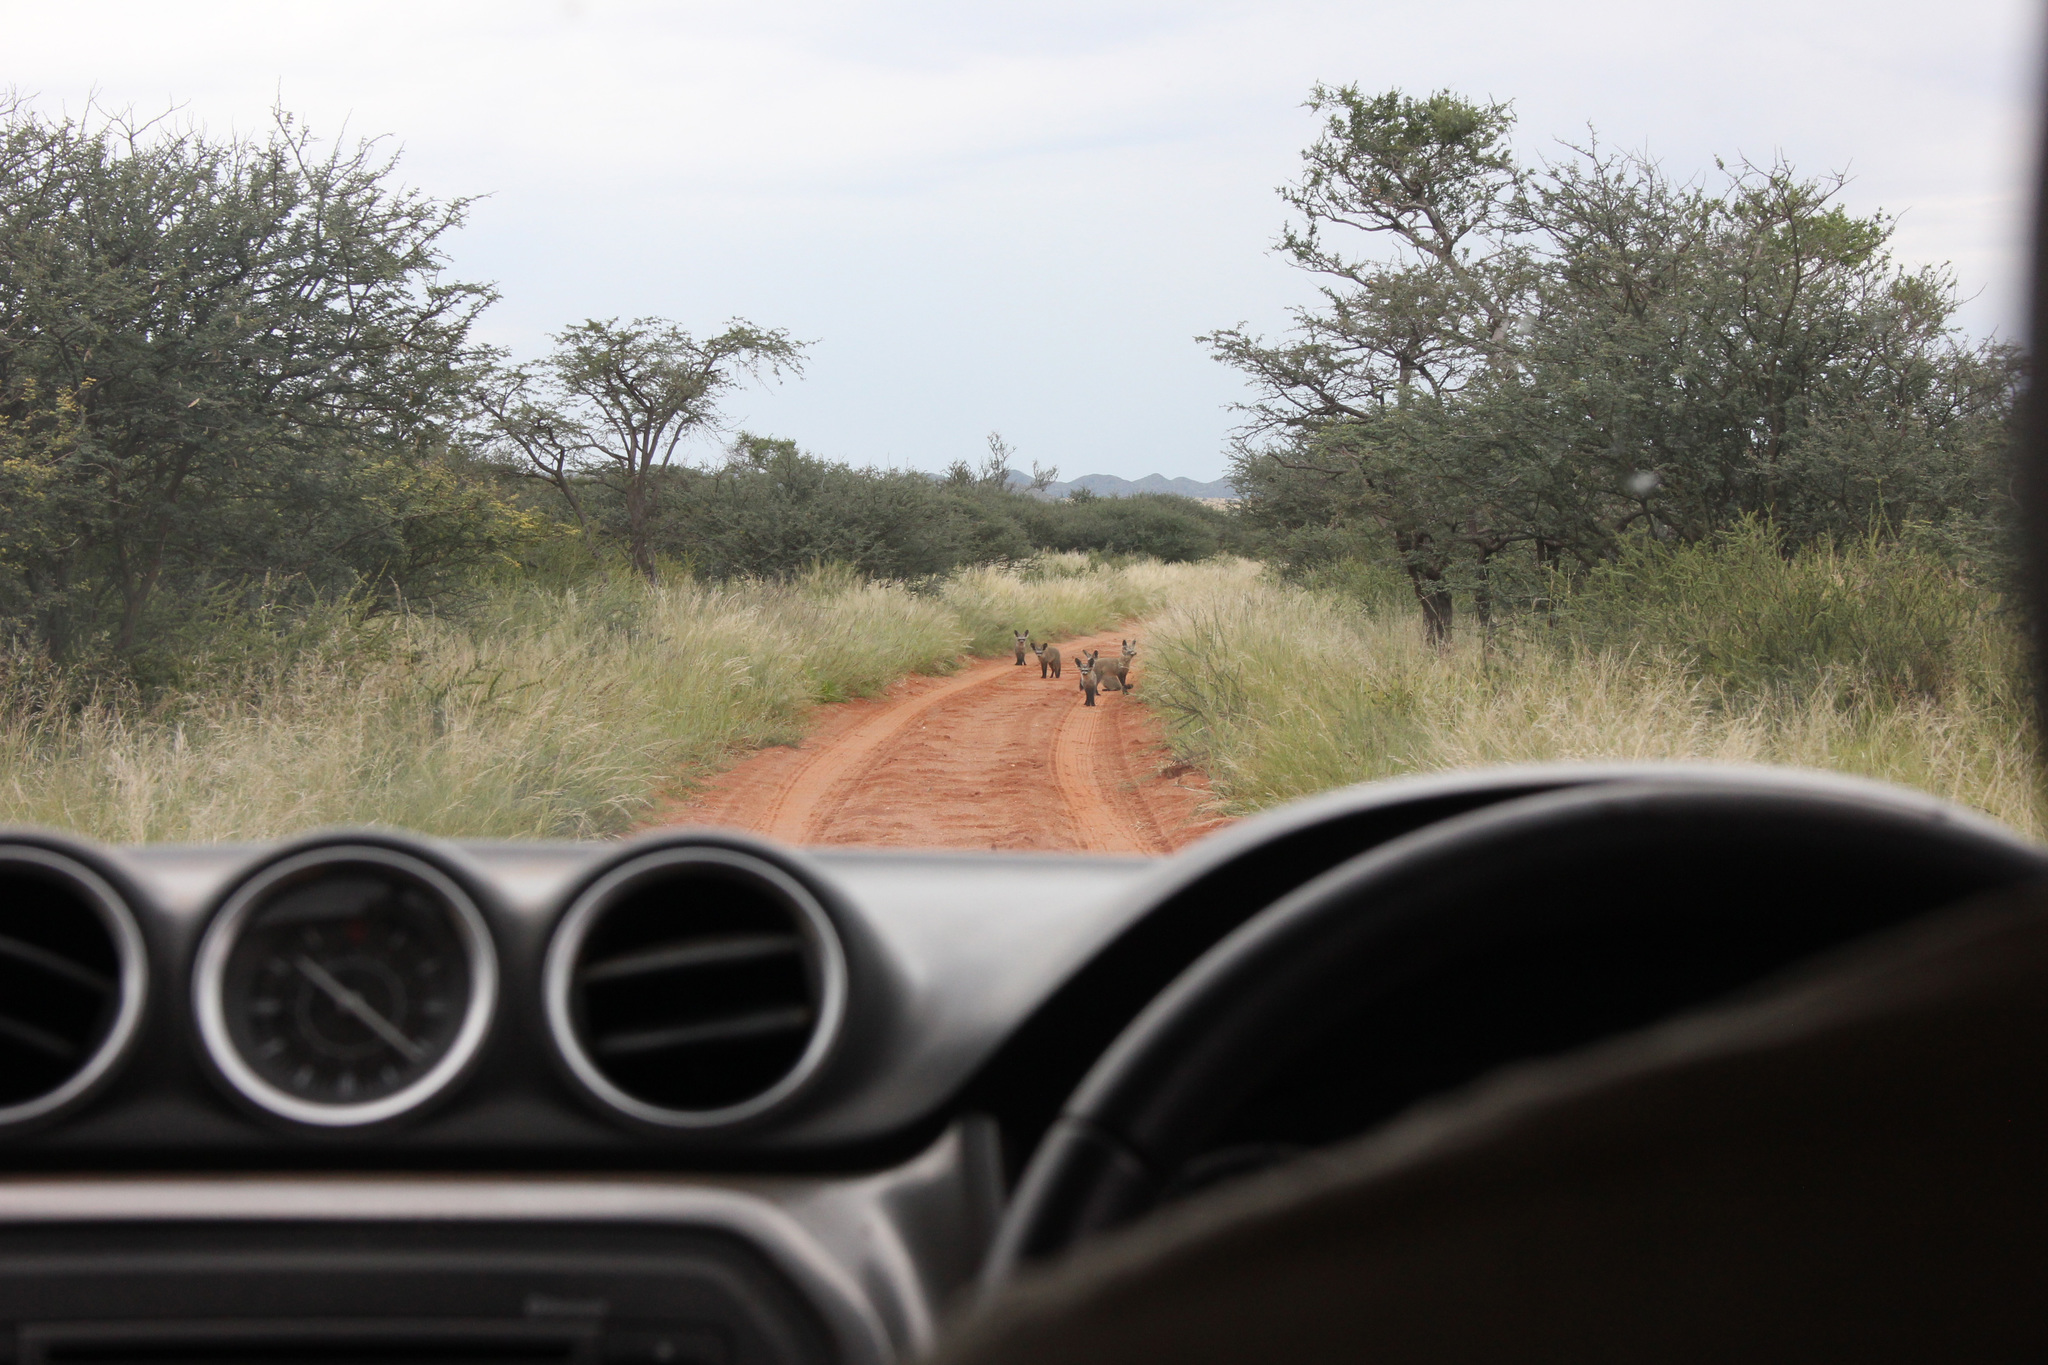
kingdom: Animalia
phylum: Chordata
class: Mammalia
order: Carnivora
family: Canidae
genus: Otocyon
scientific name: Otocyon megalotis
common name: Bat-eared fox
